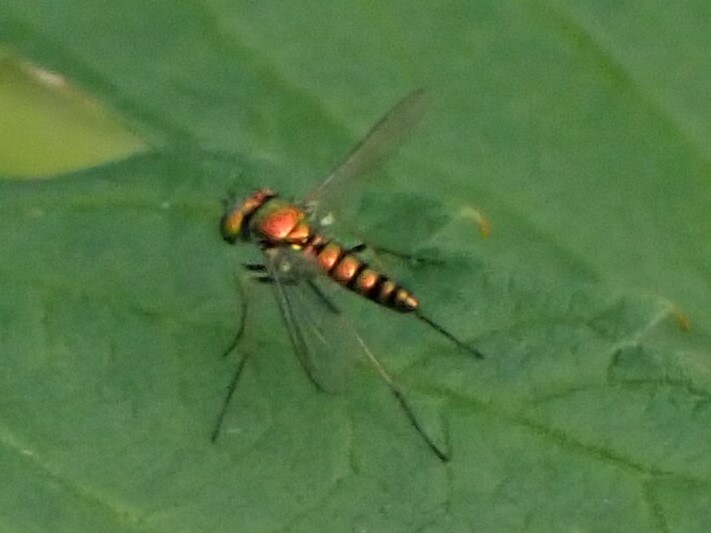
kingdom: Animalia
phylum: Arthropoda
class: Insecta
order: Diptera
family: Dolichopodidae
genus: Condylostylus
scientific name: Condylostylus
